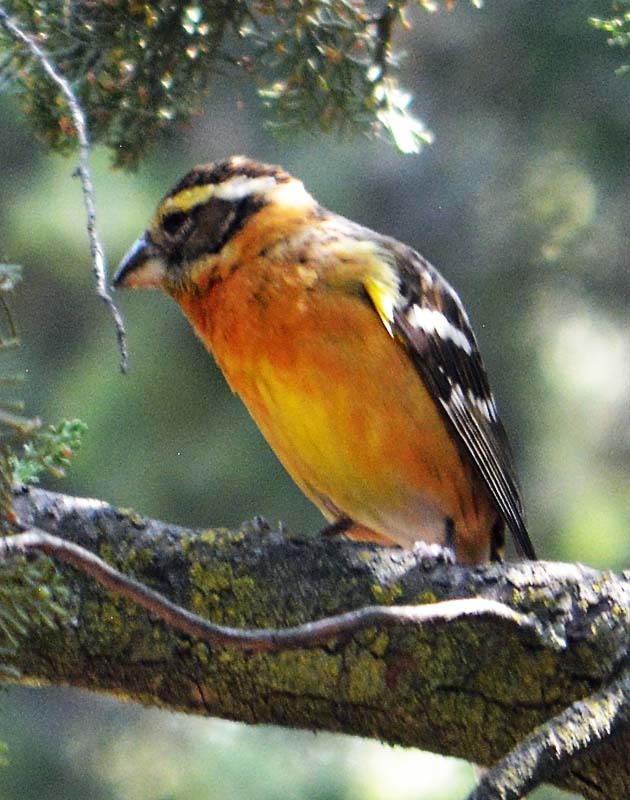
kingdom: Animalia
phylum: Chordata
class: Aves
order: Passeriformes
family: Cardinalidae
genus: Pheucticus
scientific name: Pheucticus melanocephalus
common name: Black-headed grosbeak
